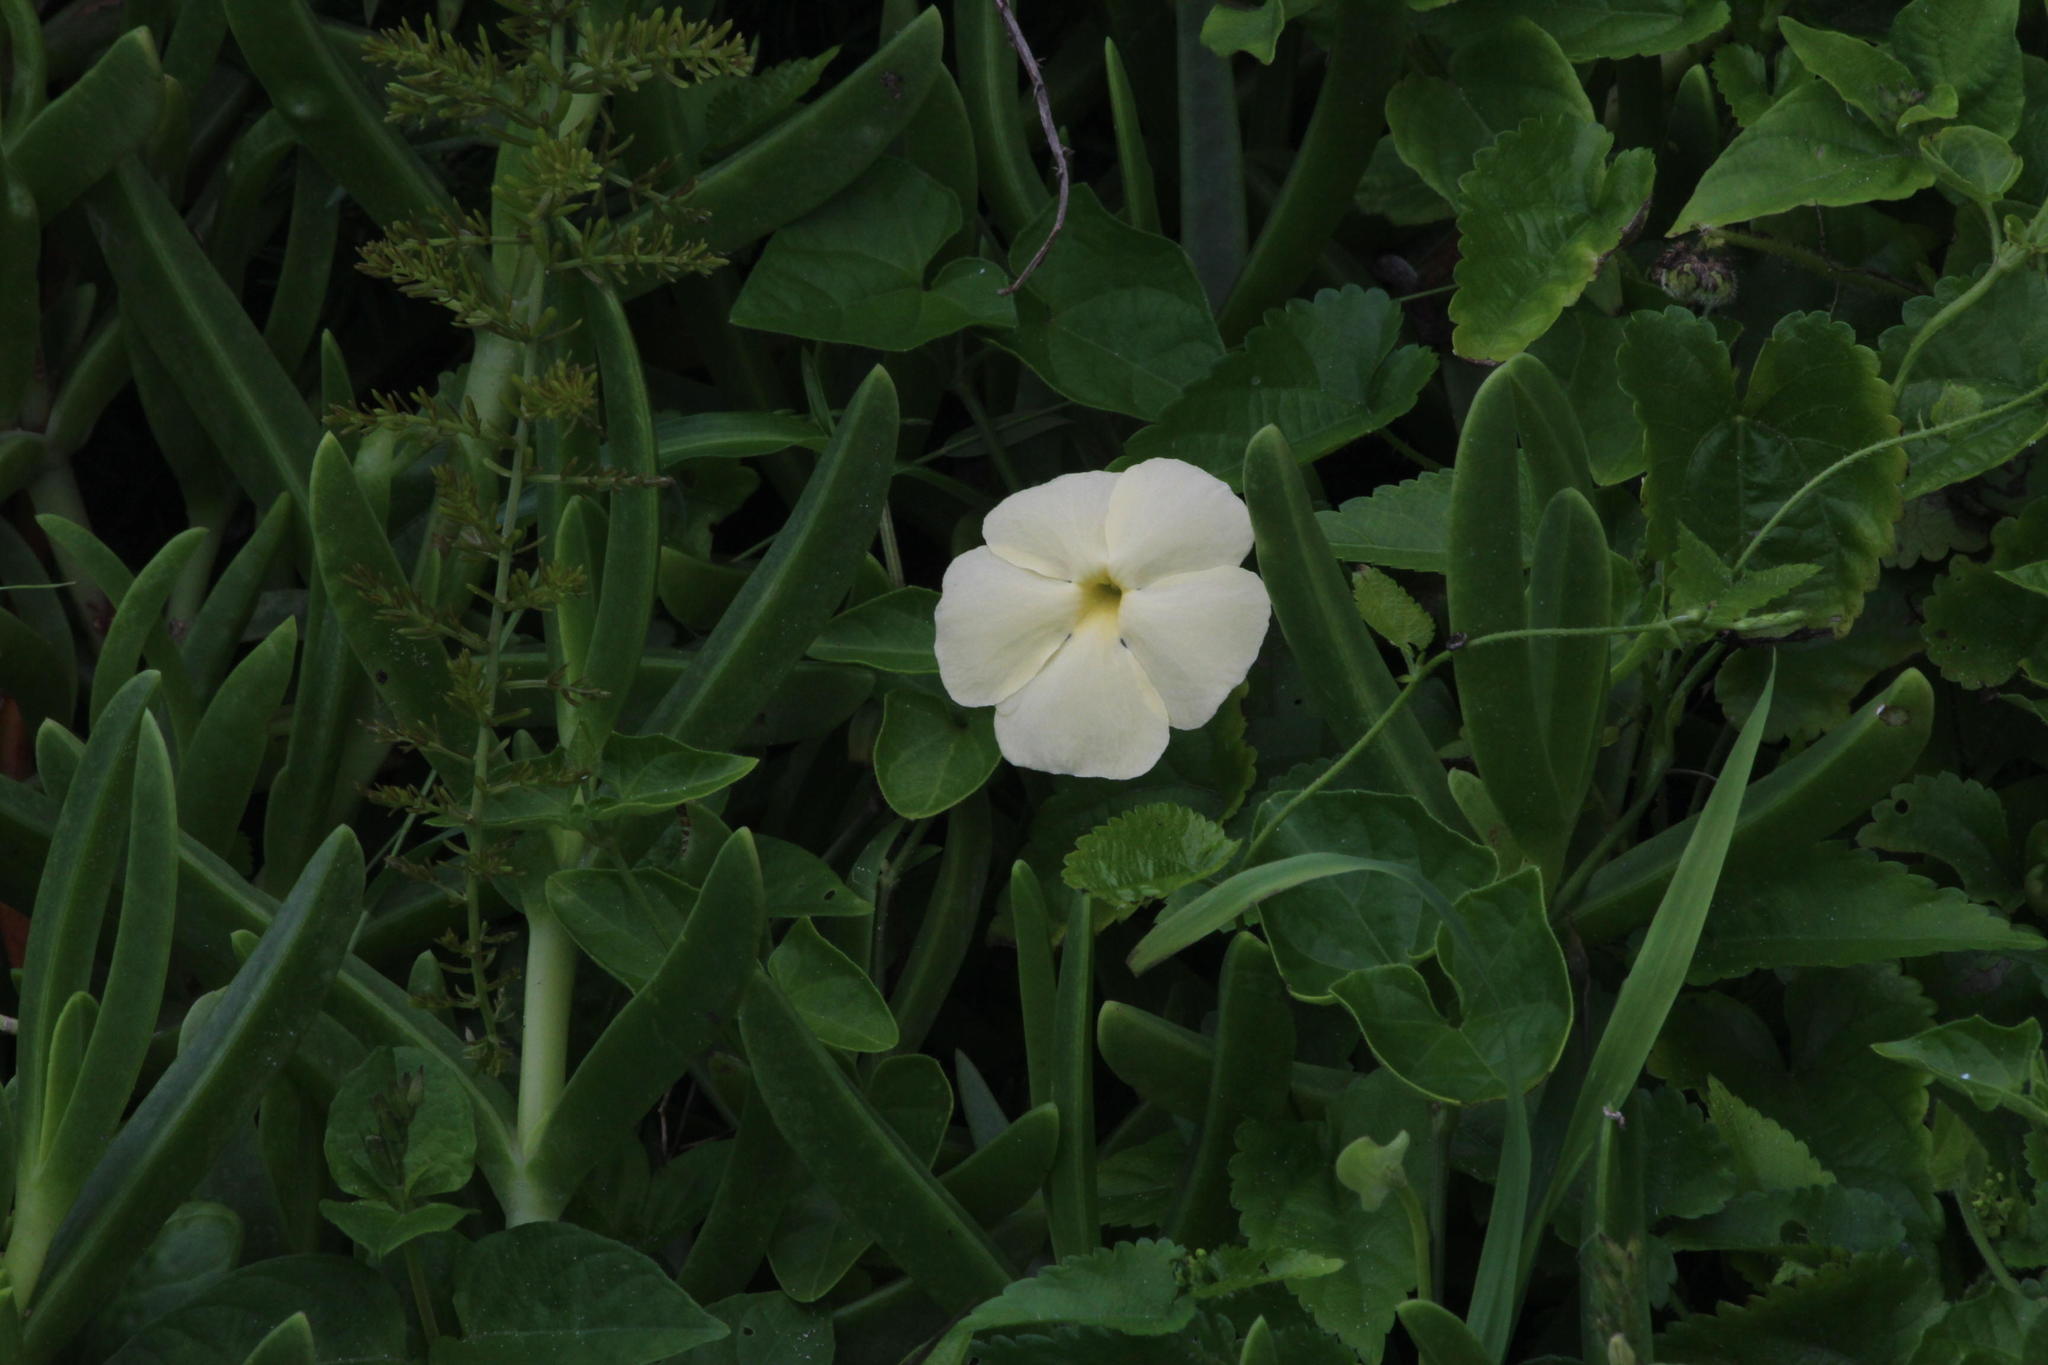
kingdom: Plantae
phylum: Tracheophyta
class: Magnoliopsida
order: Lamiales
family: Acanthaceae
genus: Thunbergia
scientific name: Thunbergia atriplicifolia
